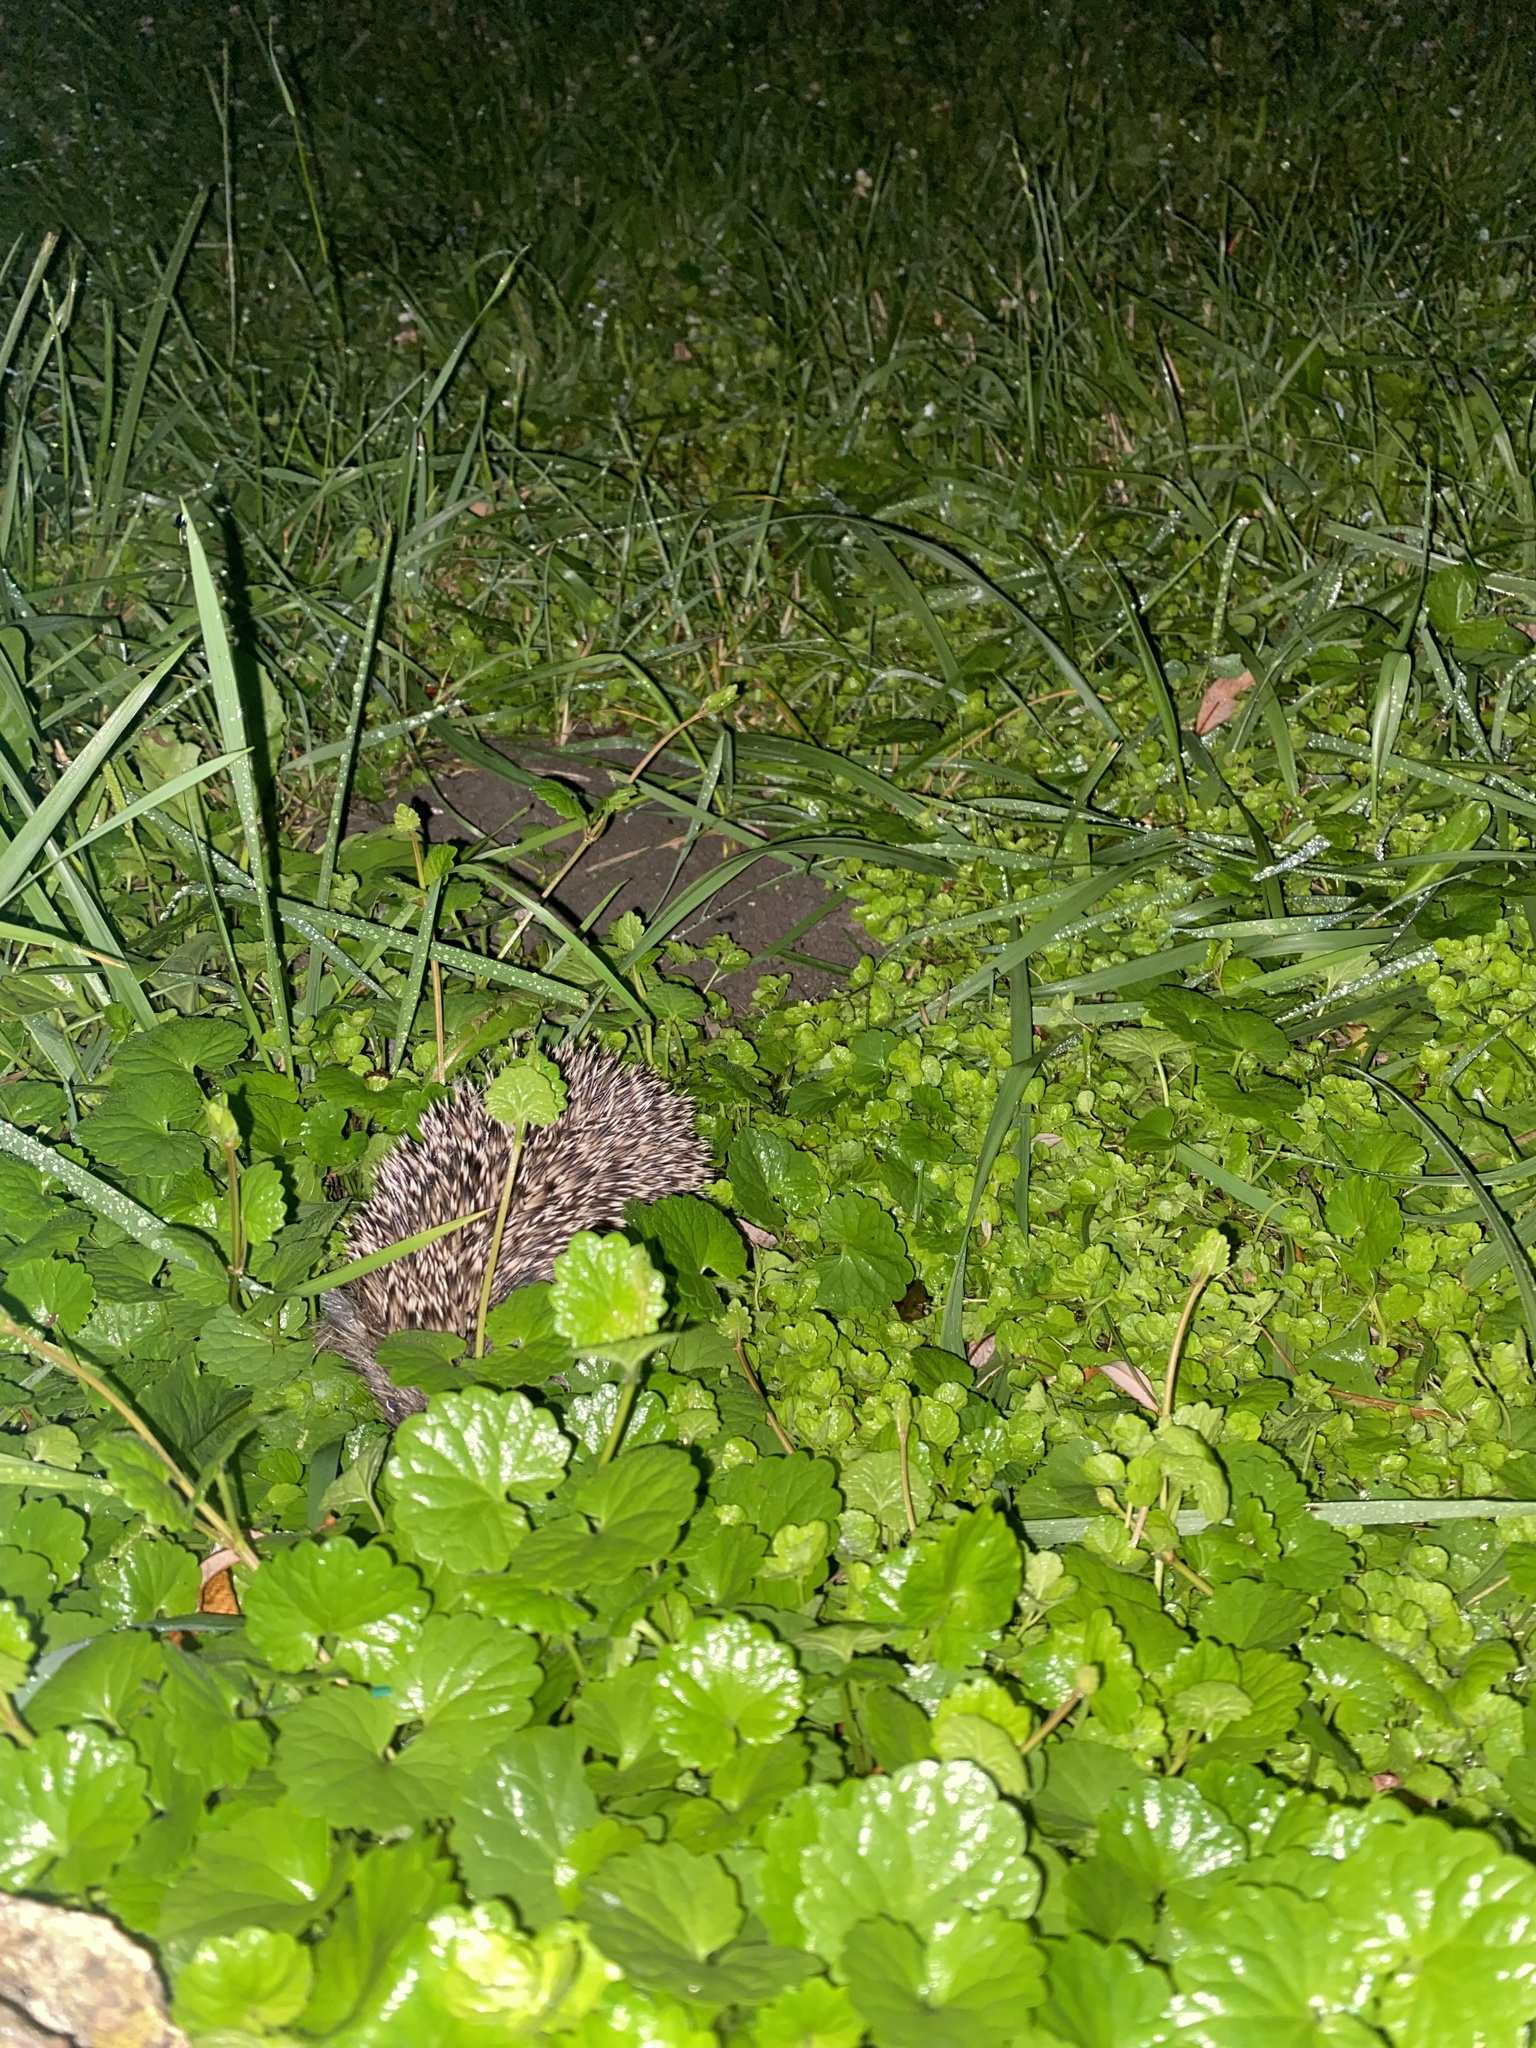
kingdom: Animalia
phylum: Chordata
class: Mammalia
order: Erinaceomorpha
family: Erinaceidae
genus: Erinaceus
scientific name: Erinaceus roumanicus
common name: Northern white-breasted hedgehog
